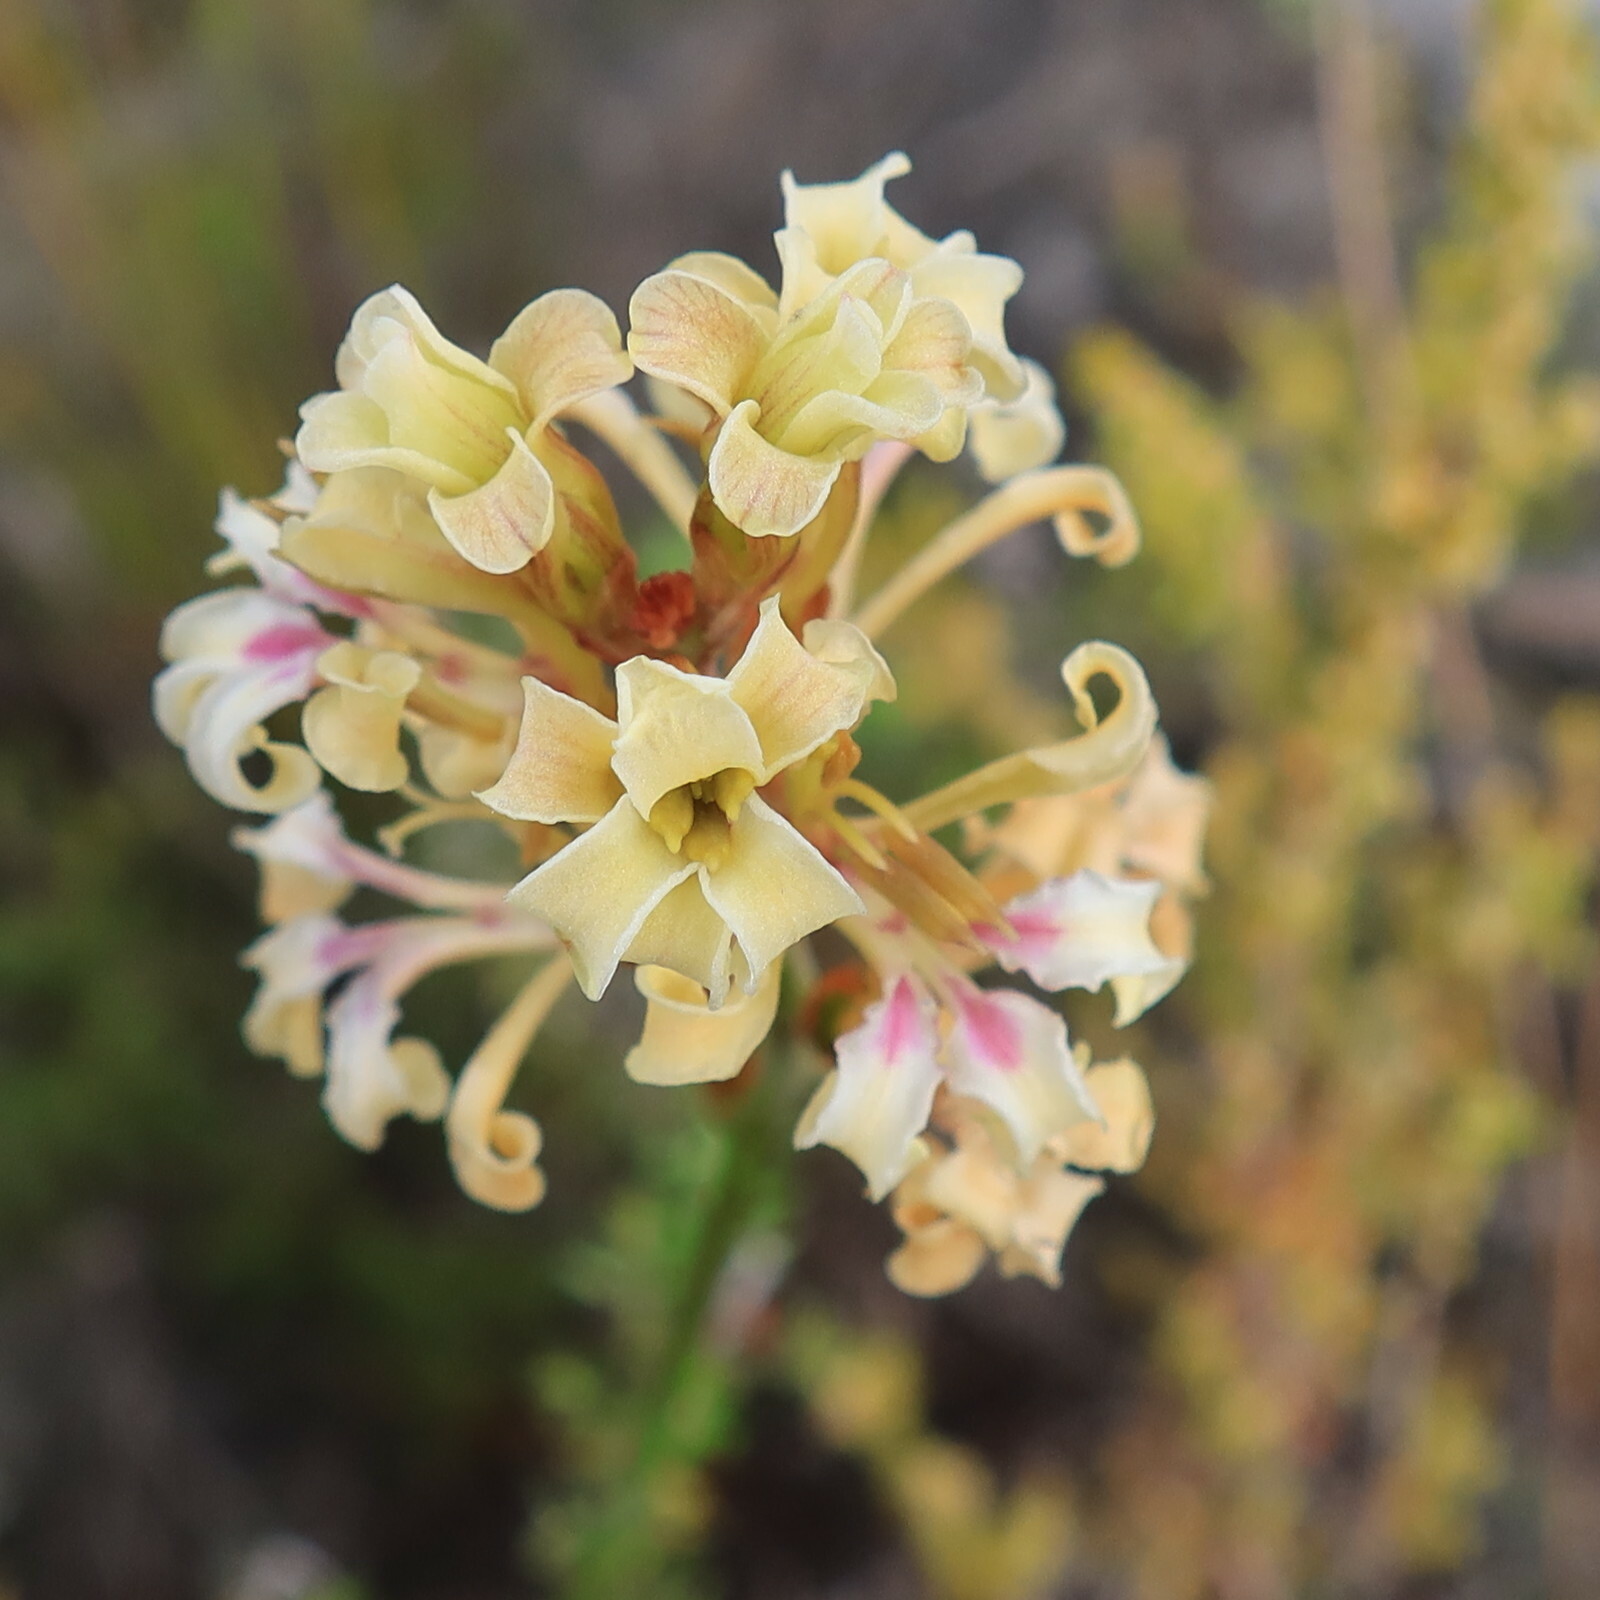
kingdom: Plantae
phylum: Tracheophyta
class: Liliopsida
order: Asparagales
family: Iridaceae
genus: Tritoniopsis
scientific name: Tritoniopsis unguicularis
